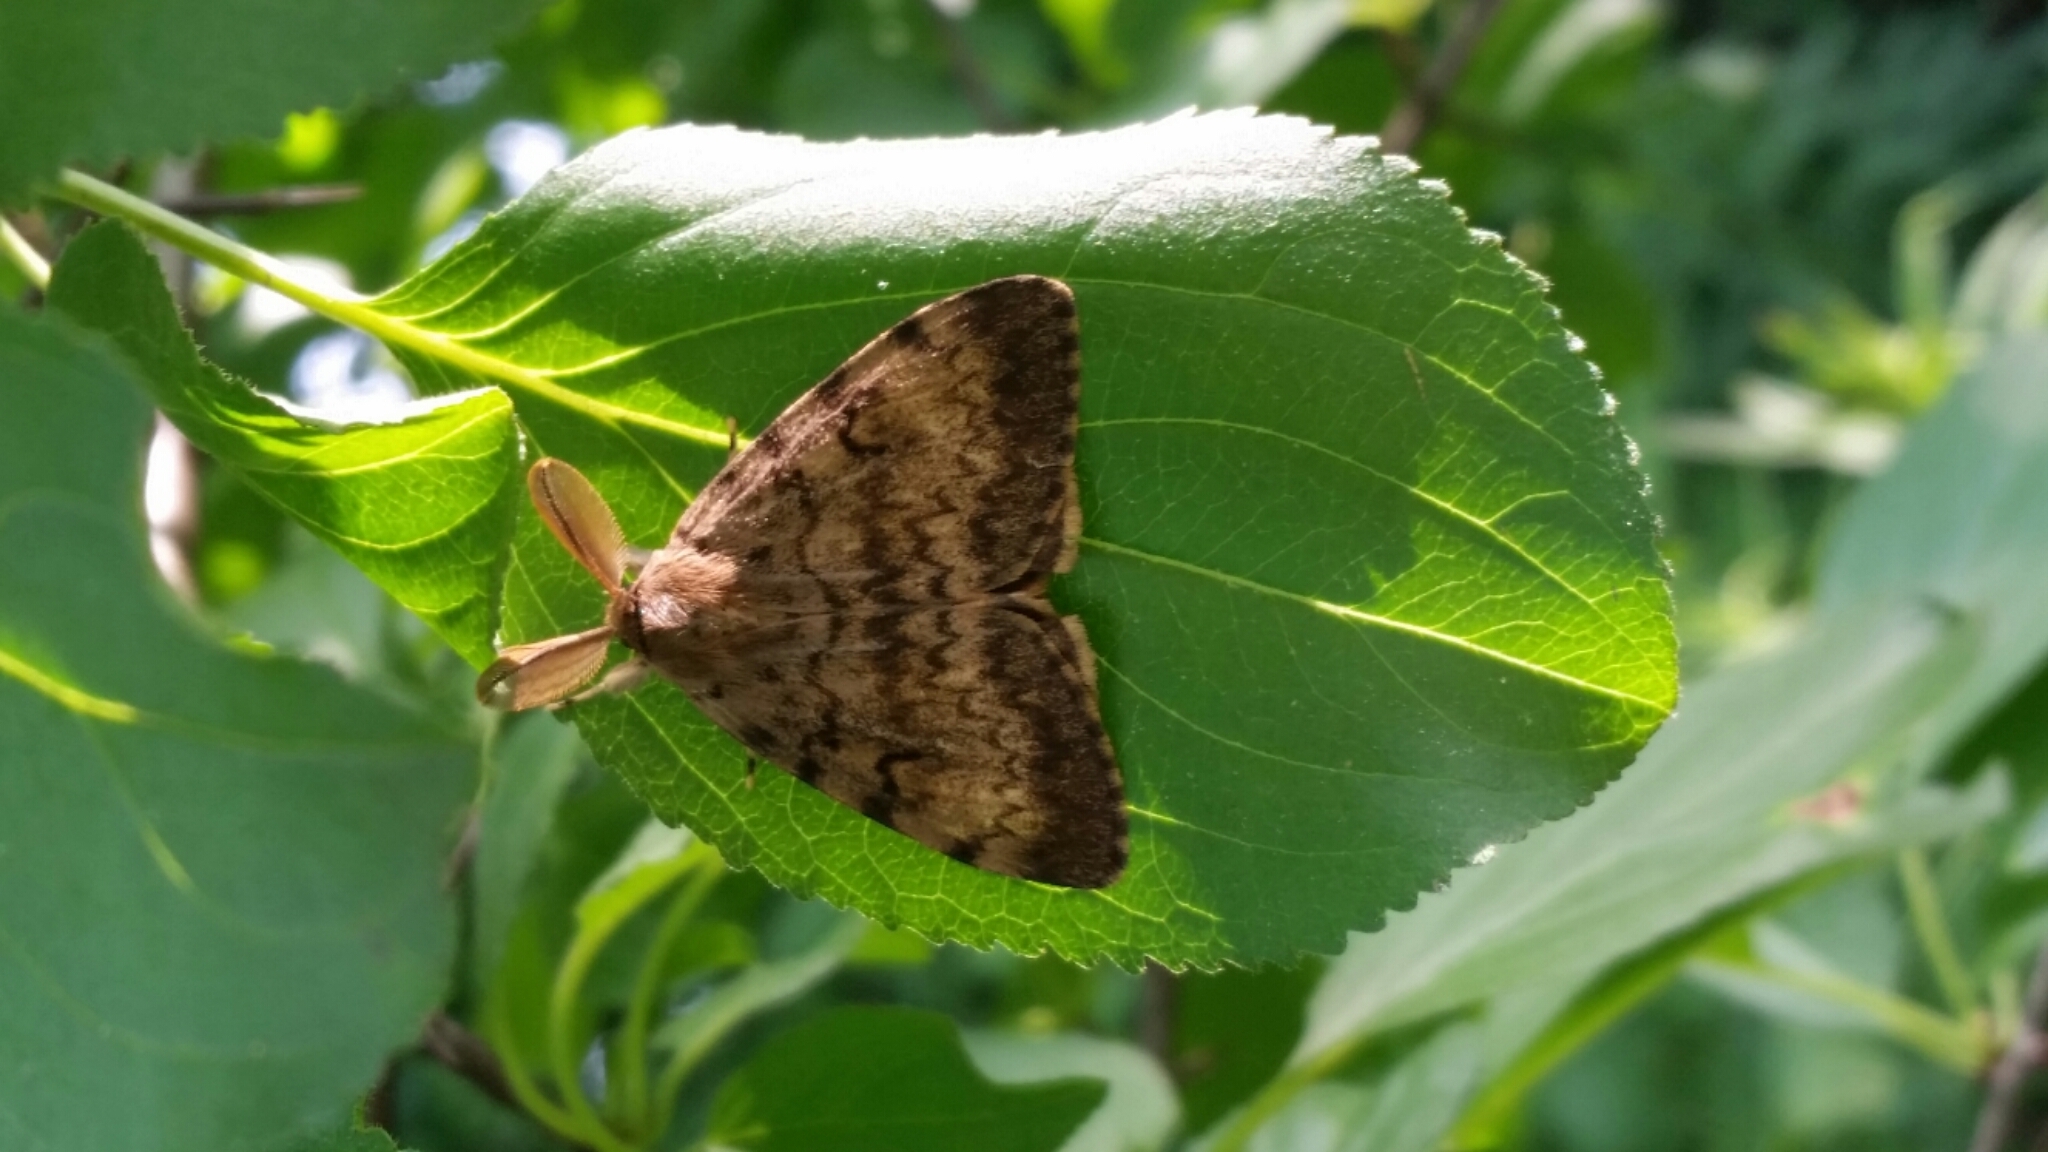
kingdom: Animalia
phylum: Arthropoda
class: Insecta
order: Lepidoptera
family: Erebidae
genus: Lymantria
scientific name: Lymantria dispar
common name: Gypsy moth
